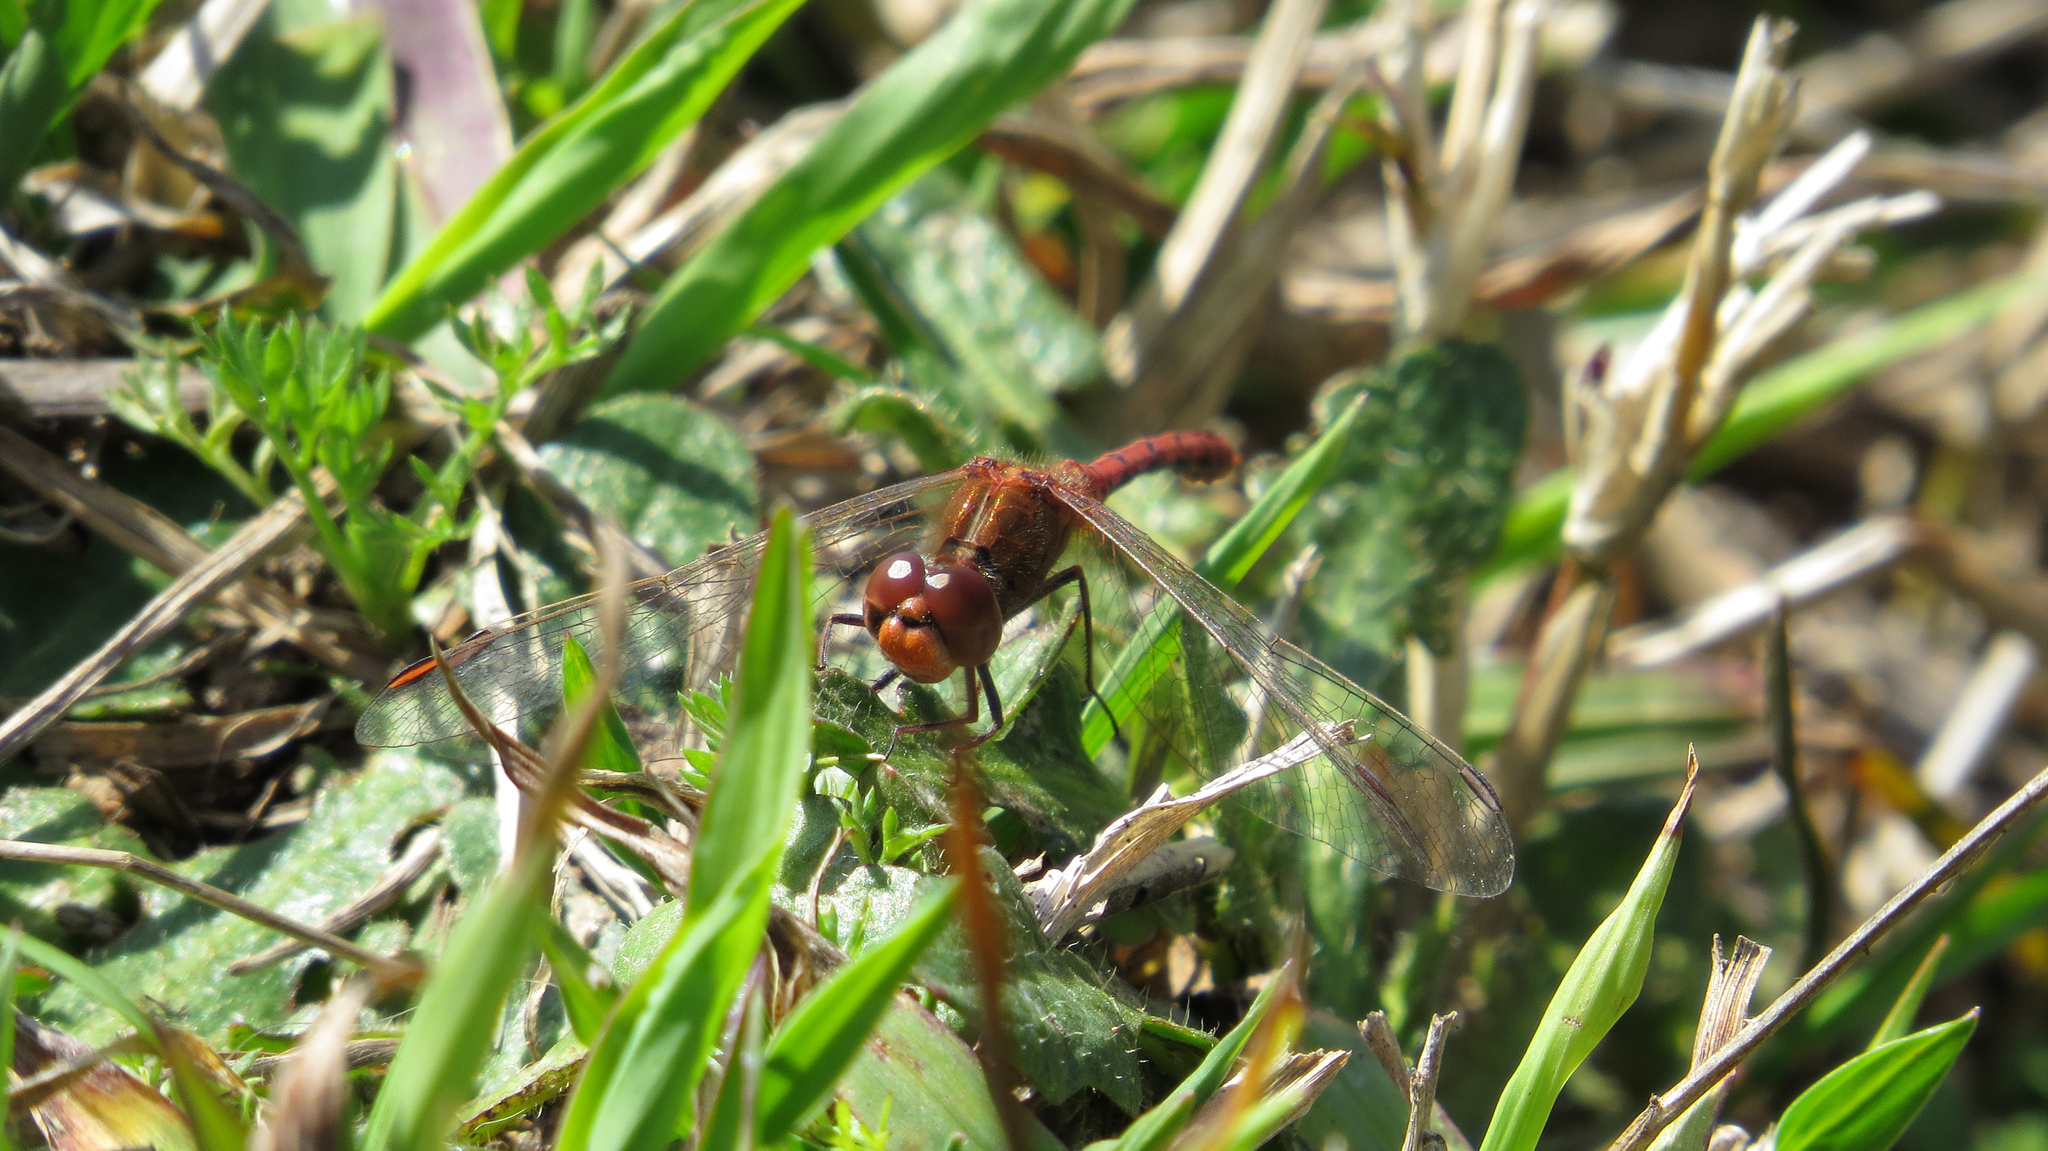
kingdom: Animalia
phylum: Arthropoda
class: Insecta
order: Odonata
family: Libellulidae
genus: Diplacodes
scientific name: Diplacodes bipunctata
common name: Red percher dragonfly
